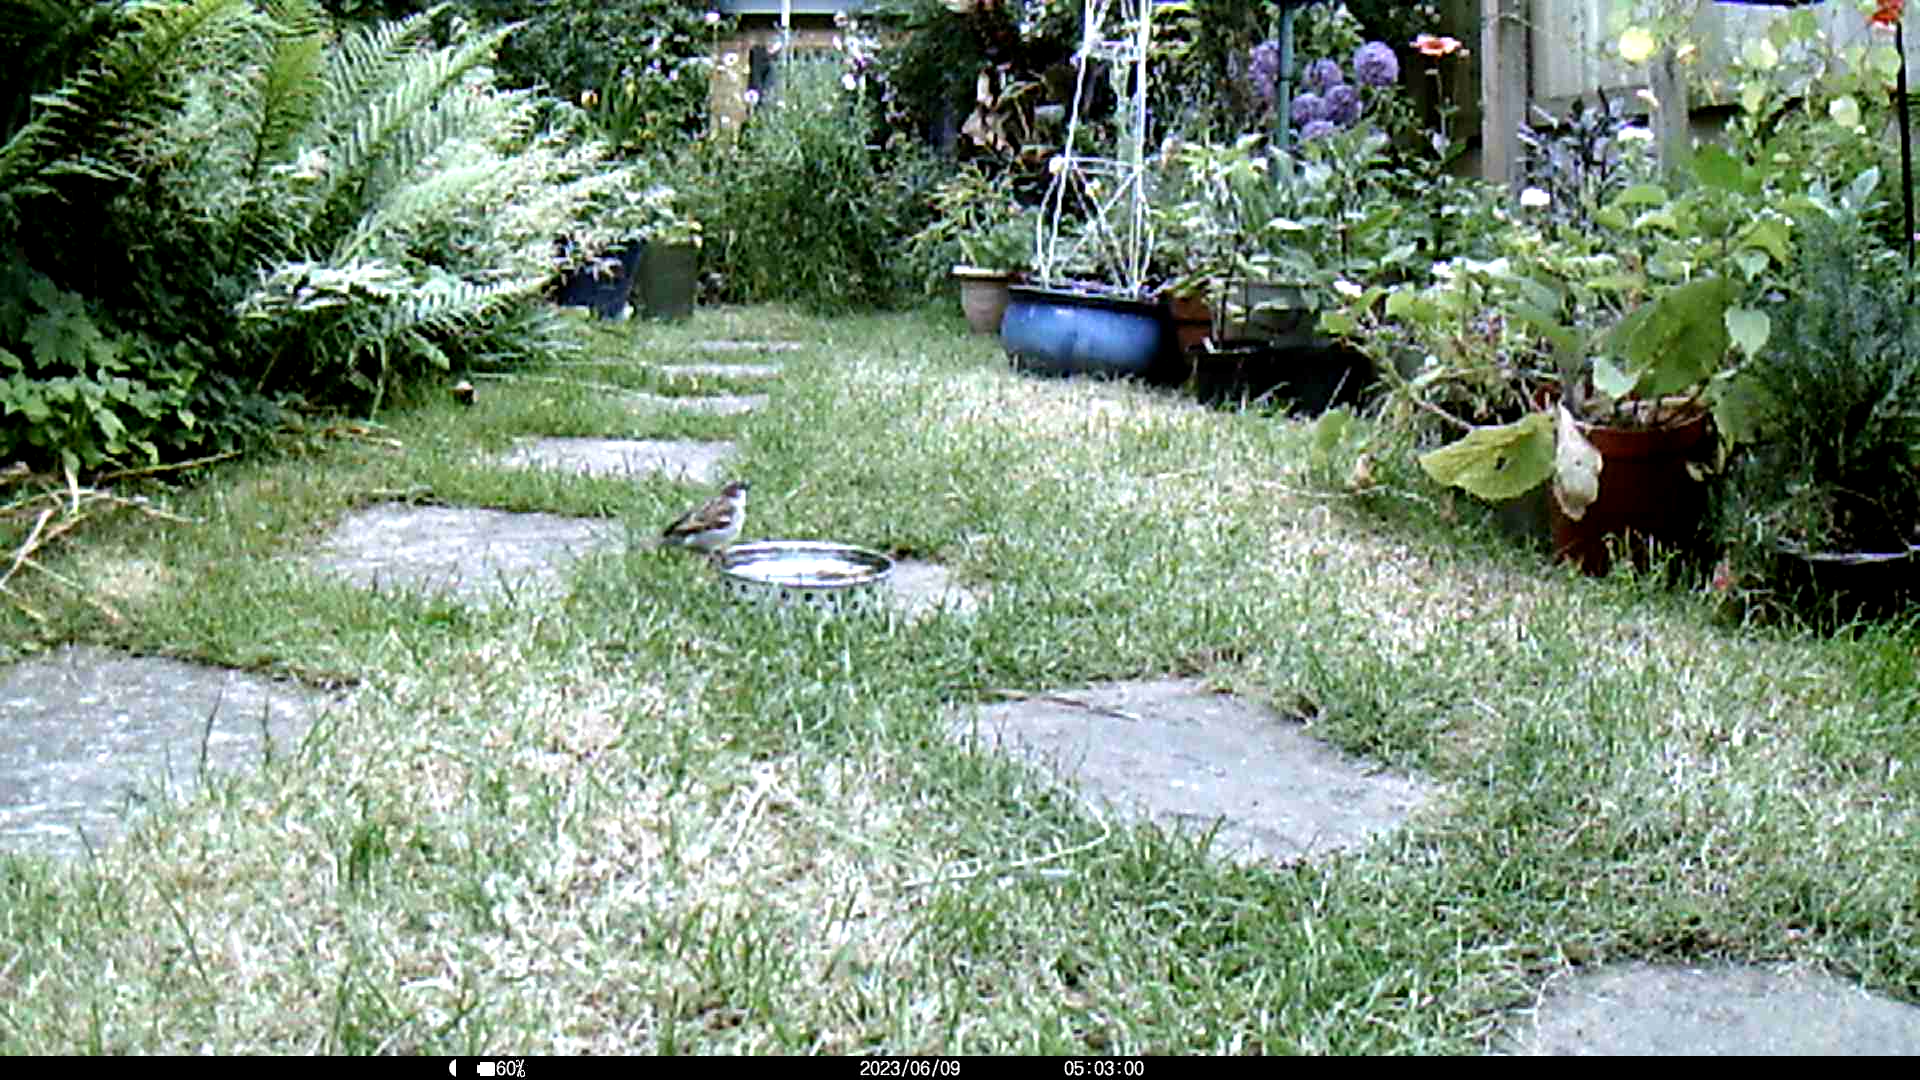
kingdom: Animalia
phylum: Chordata
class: Aves
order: Passeriformes
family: Passeridae
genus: Passer
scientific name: Passer domesticus
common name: House sparrow
